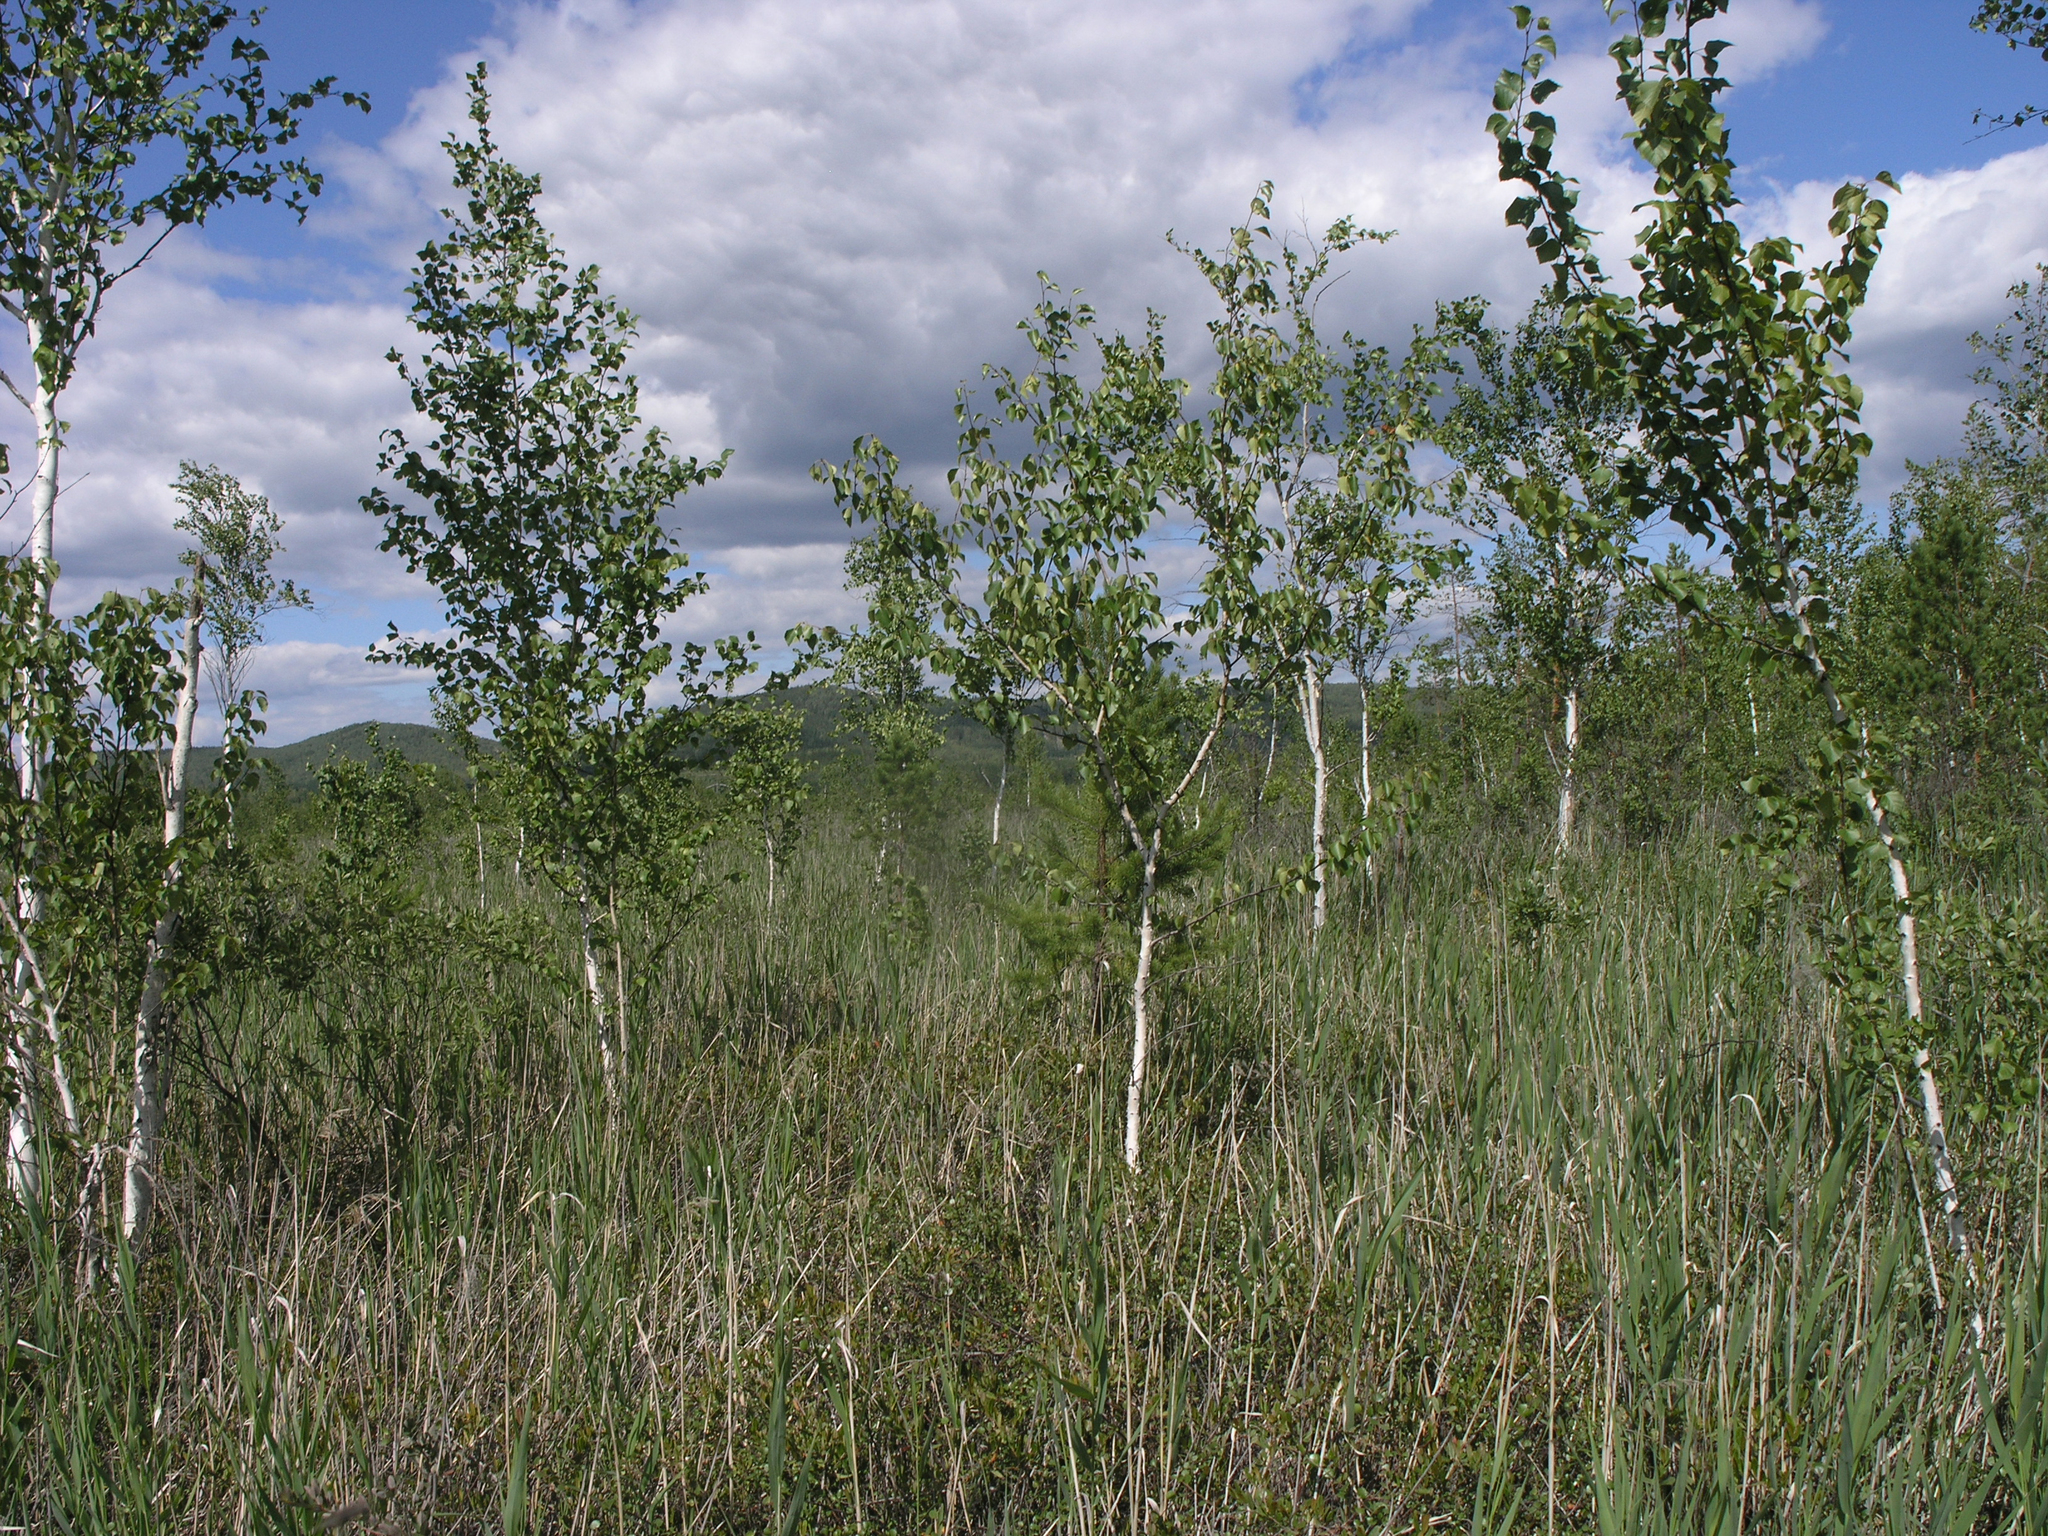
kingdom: Plantae
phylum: Tracheophyta
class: Magnoliopsida
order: Fagales
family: Betulaceae
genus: Betula
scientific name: Betula pubescens
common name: Downy birch
